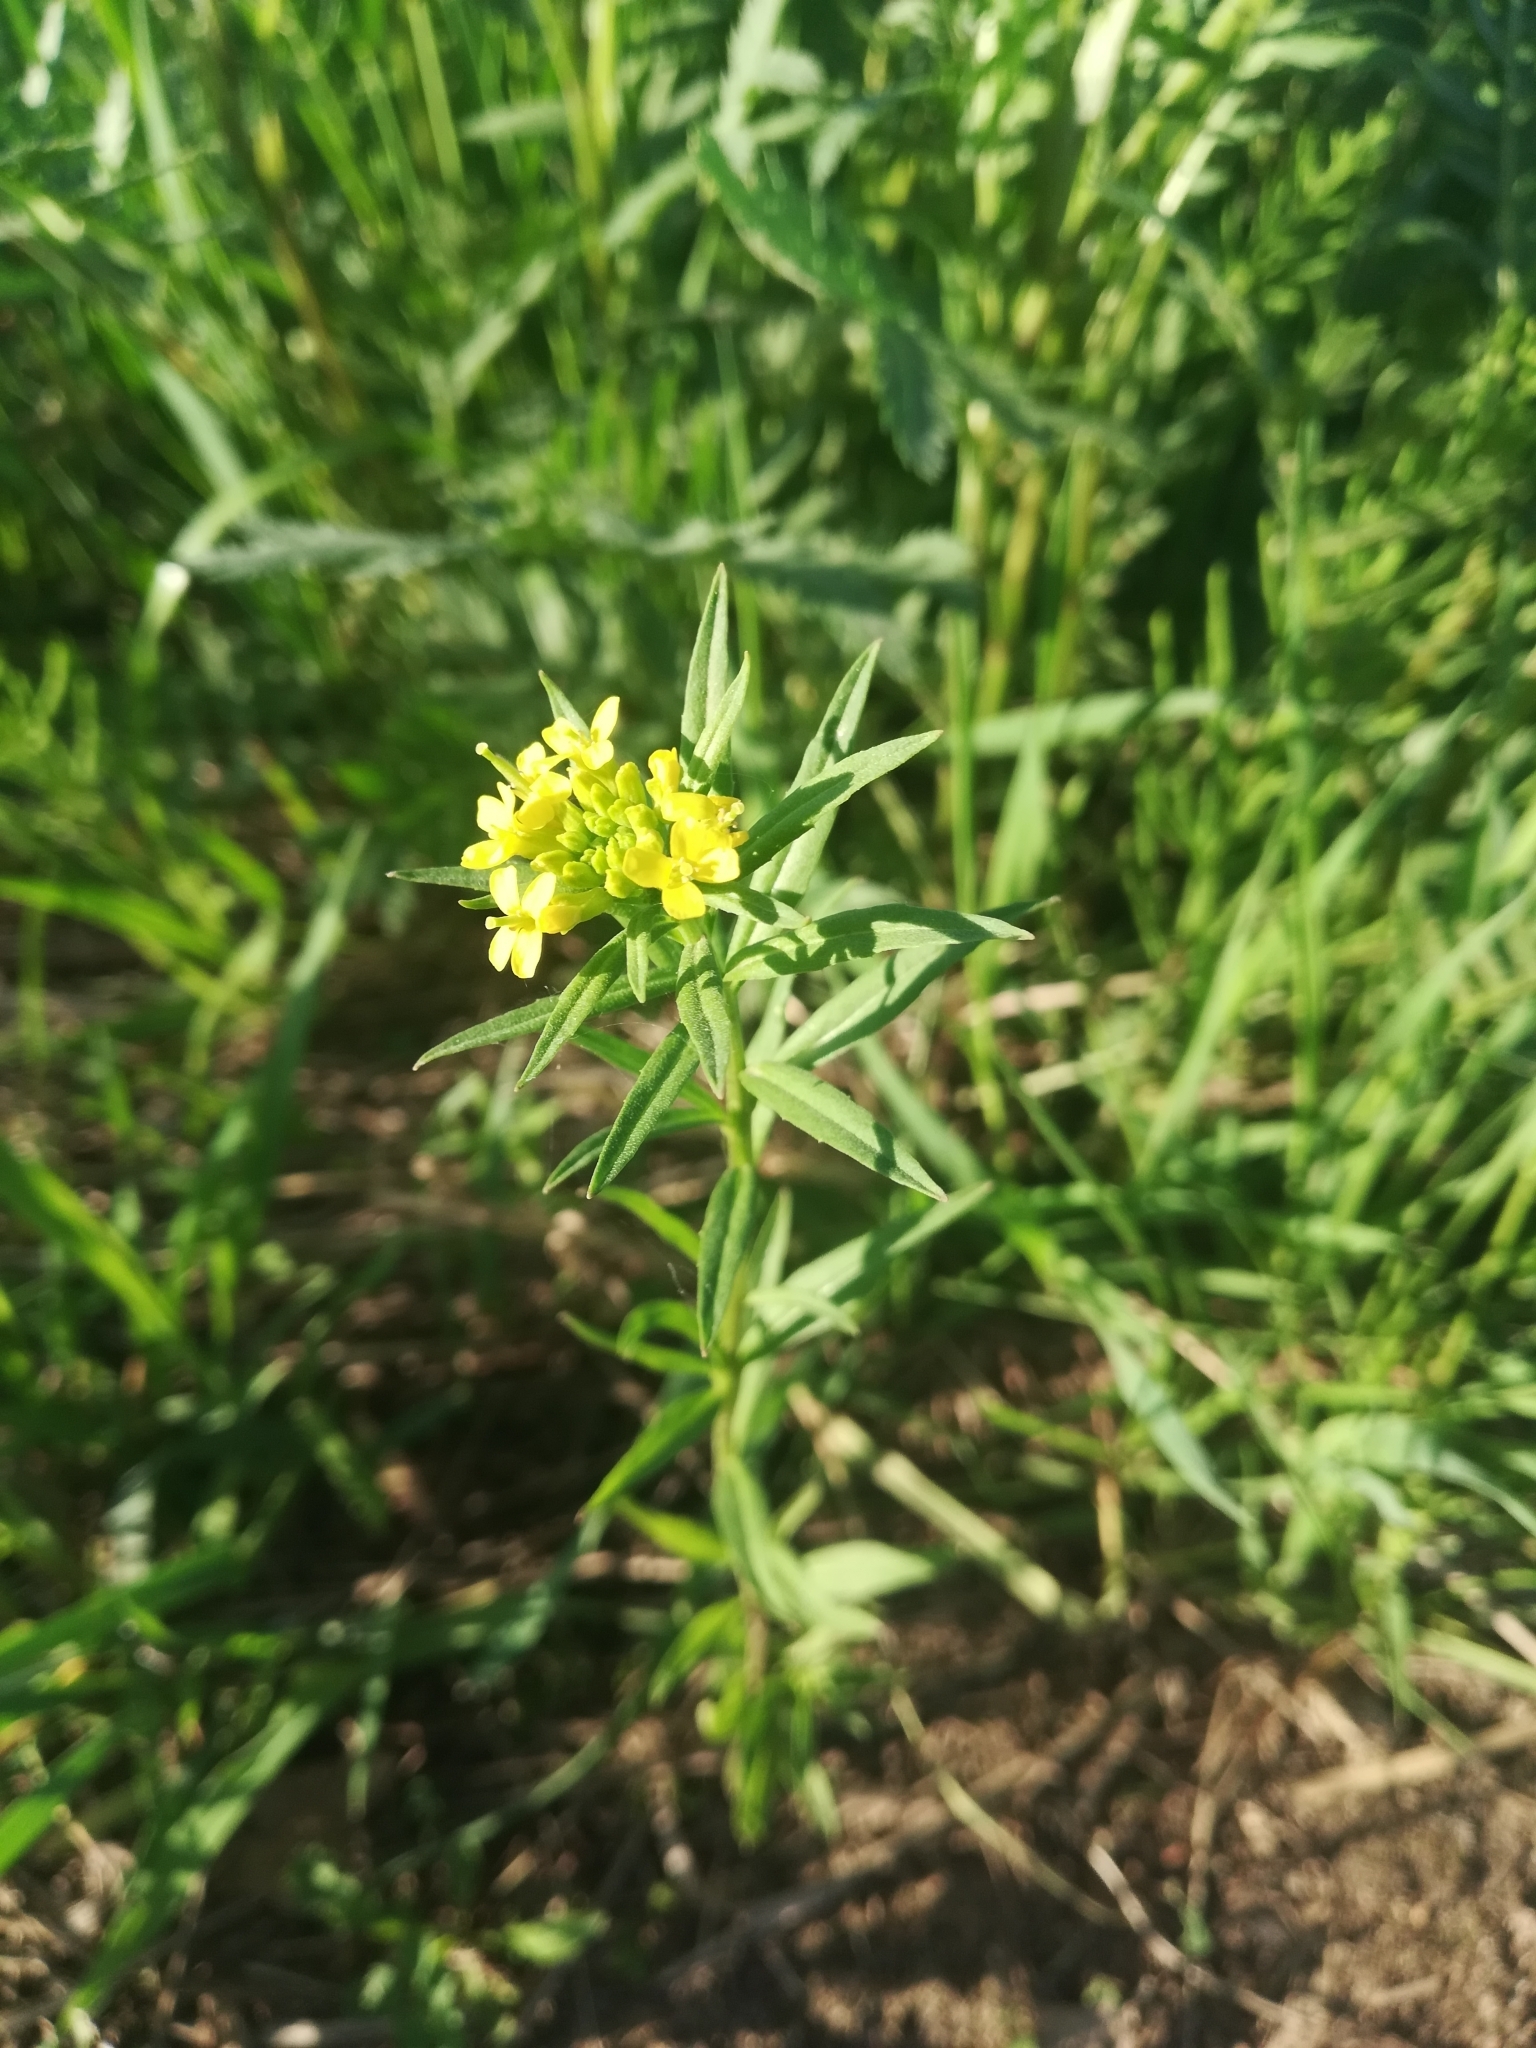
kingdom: Plantae
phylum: Tracheophyta
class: Magnoliopsida
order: Brassicales
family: Brassicaceae
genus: Erysimum
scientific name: Erysimum cheiranthoides
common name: Treacle mustard
